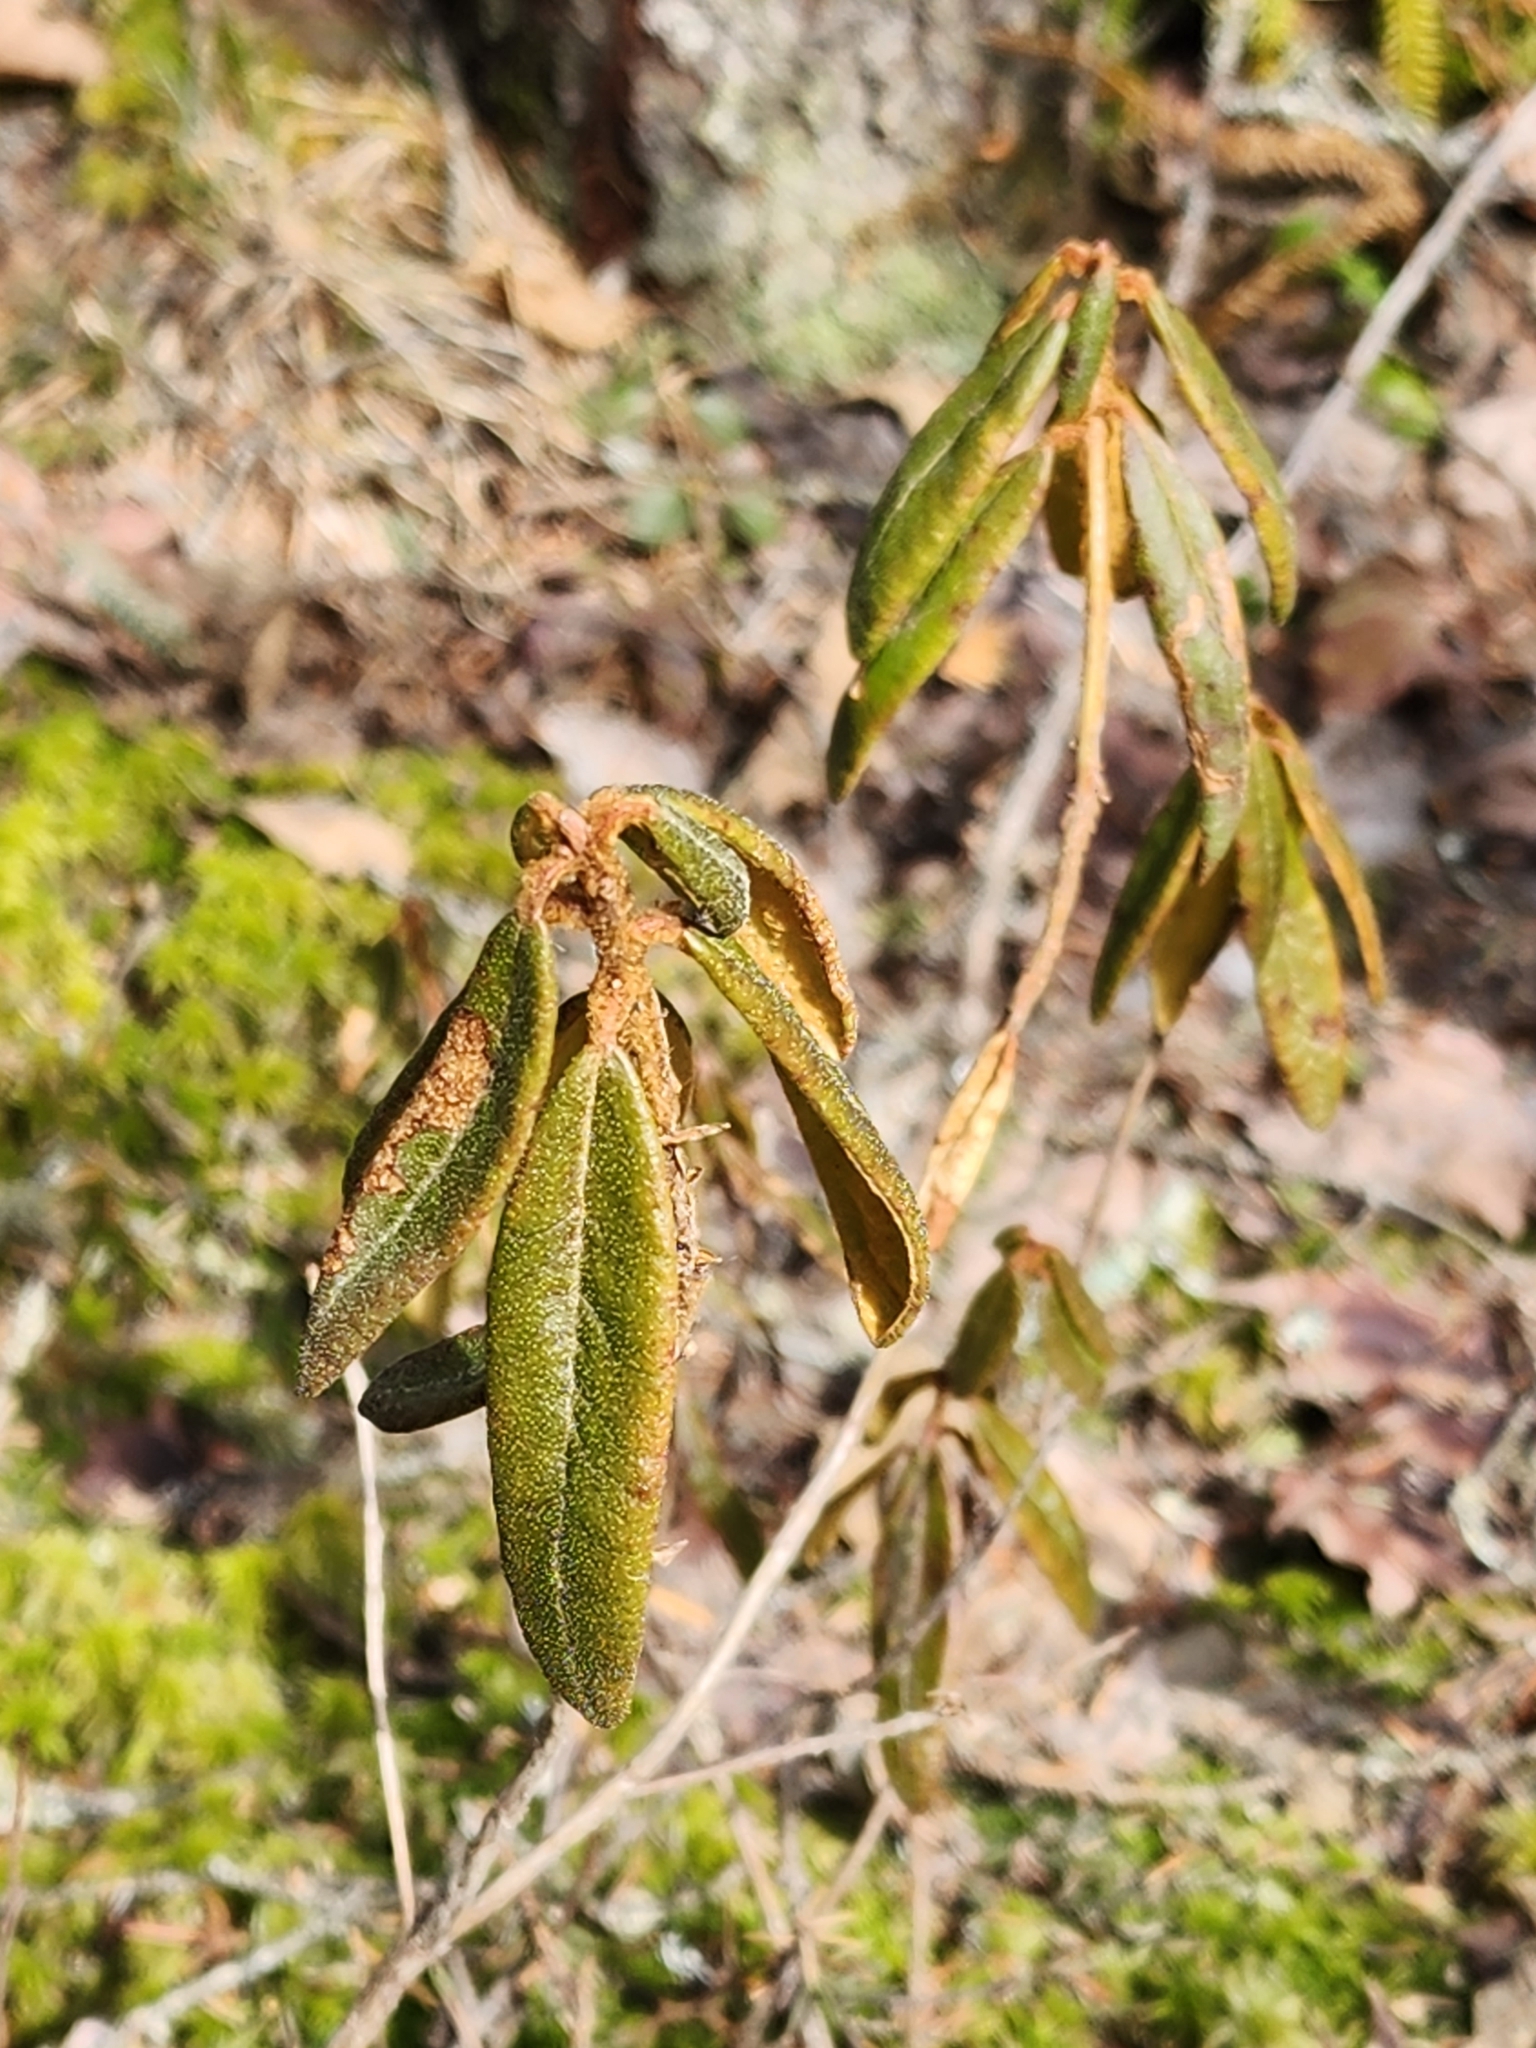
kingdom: Plantae
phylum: Tracheophyta
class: Magnoliopsida
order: Ericales
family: Ericaceae
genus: Rhododendron
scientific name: Rhododendron groenlandicum
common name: Bog labrador tea
